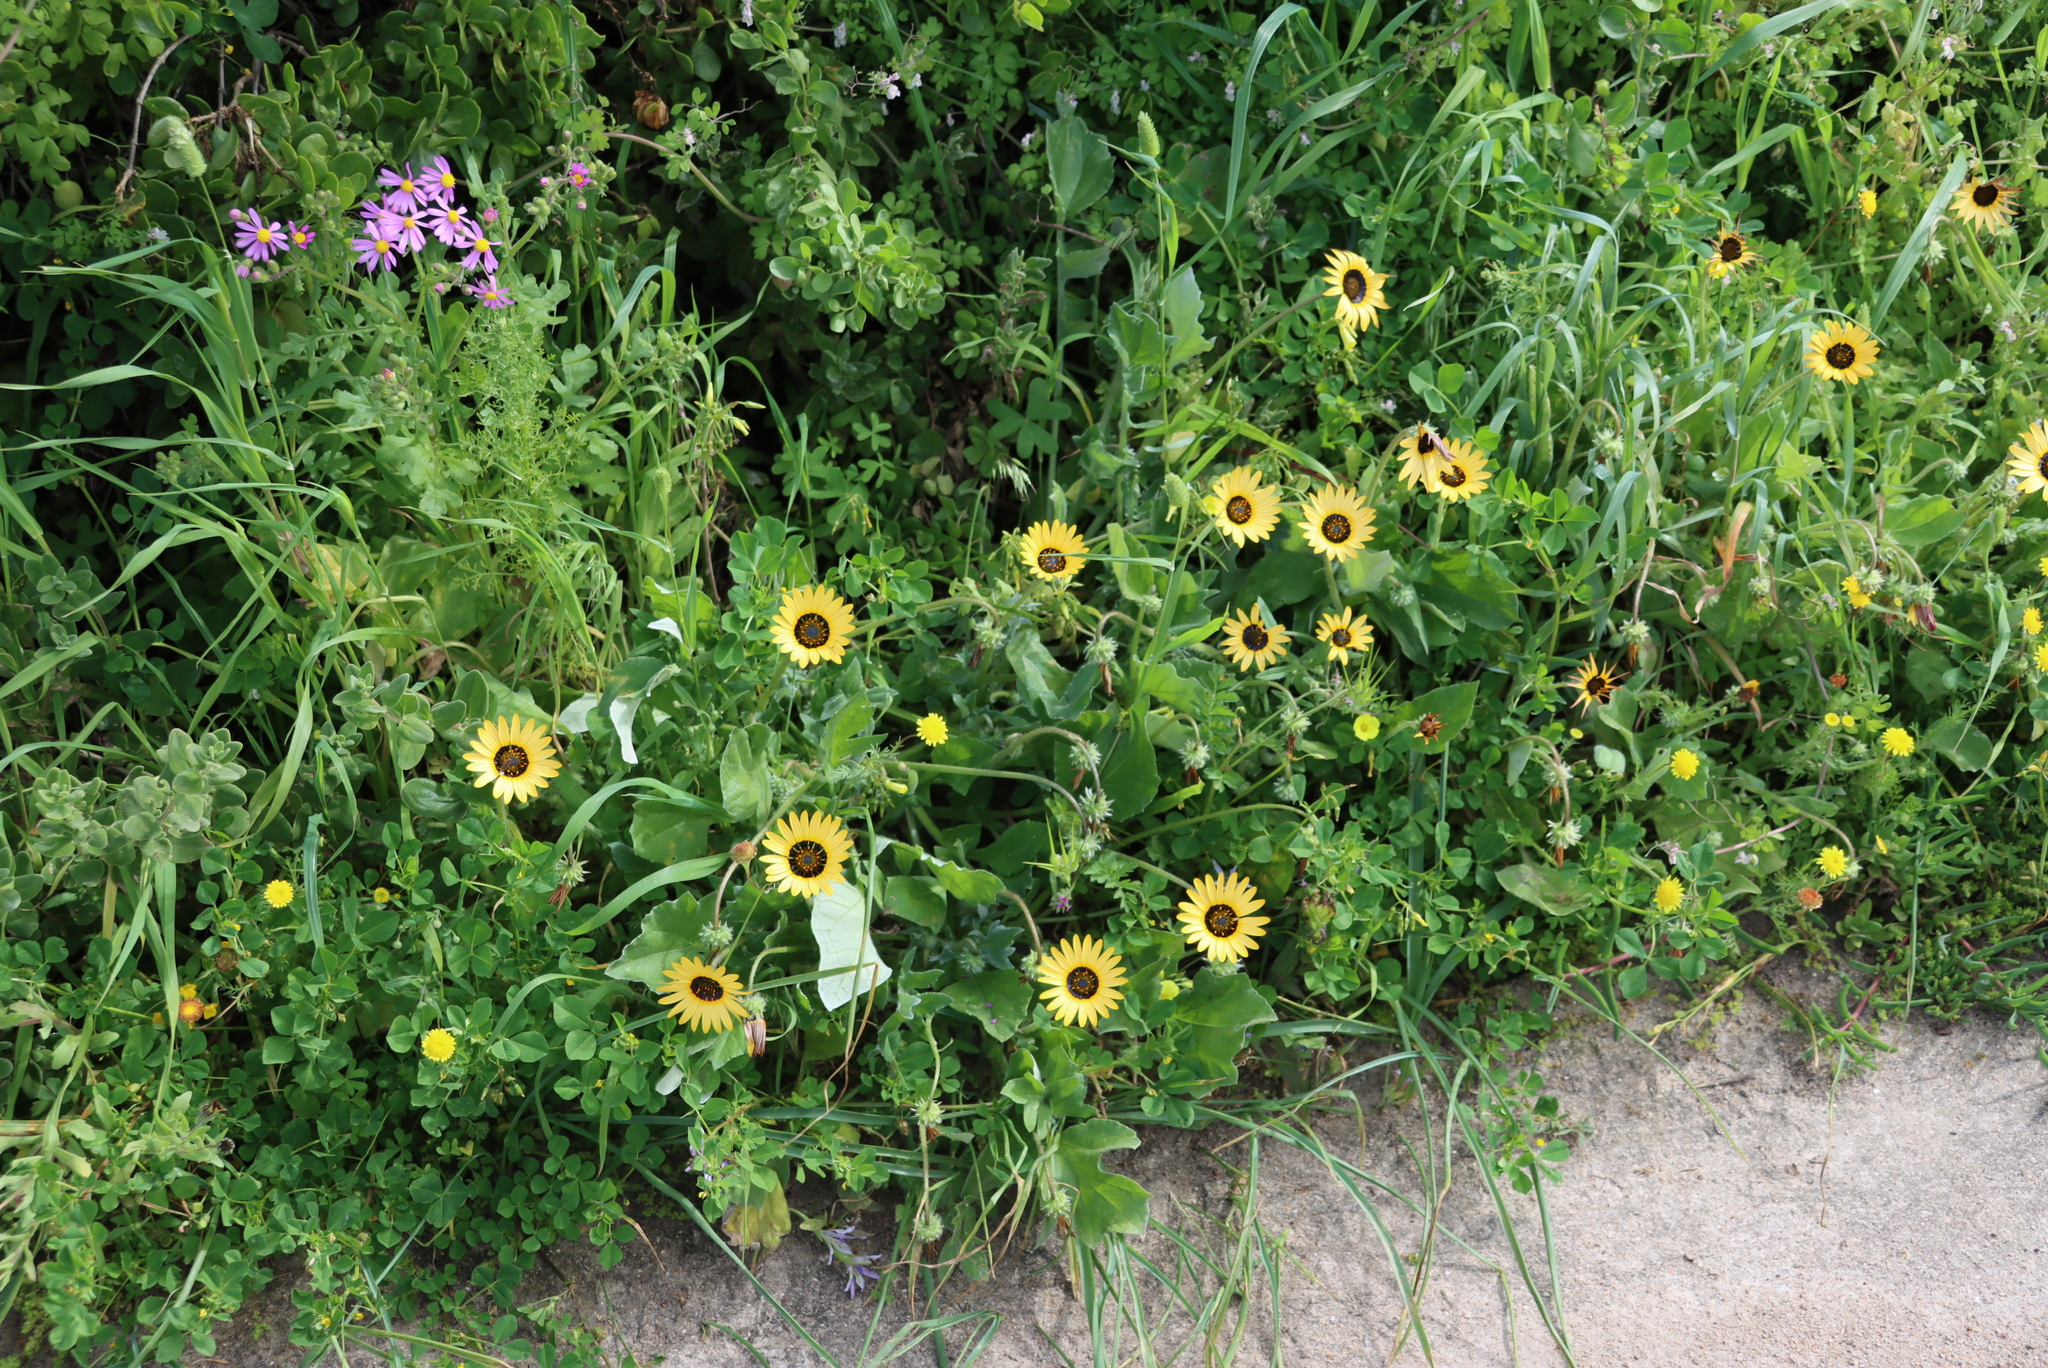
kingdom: Plantae
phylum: Tracheophyta
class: Magnoliopsida
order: Asterales
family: Asteraceae
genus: Arctotheca
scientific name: Arctotheca calendula
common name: Capeweed
